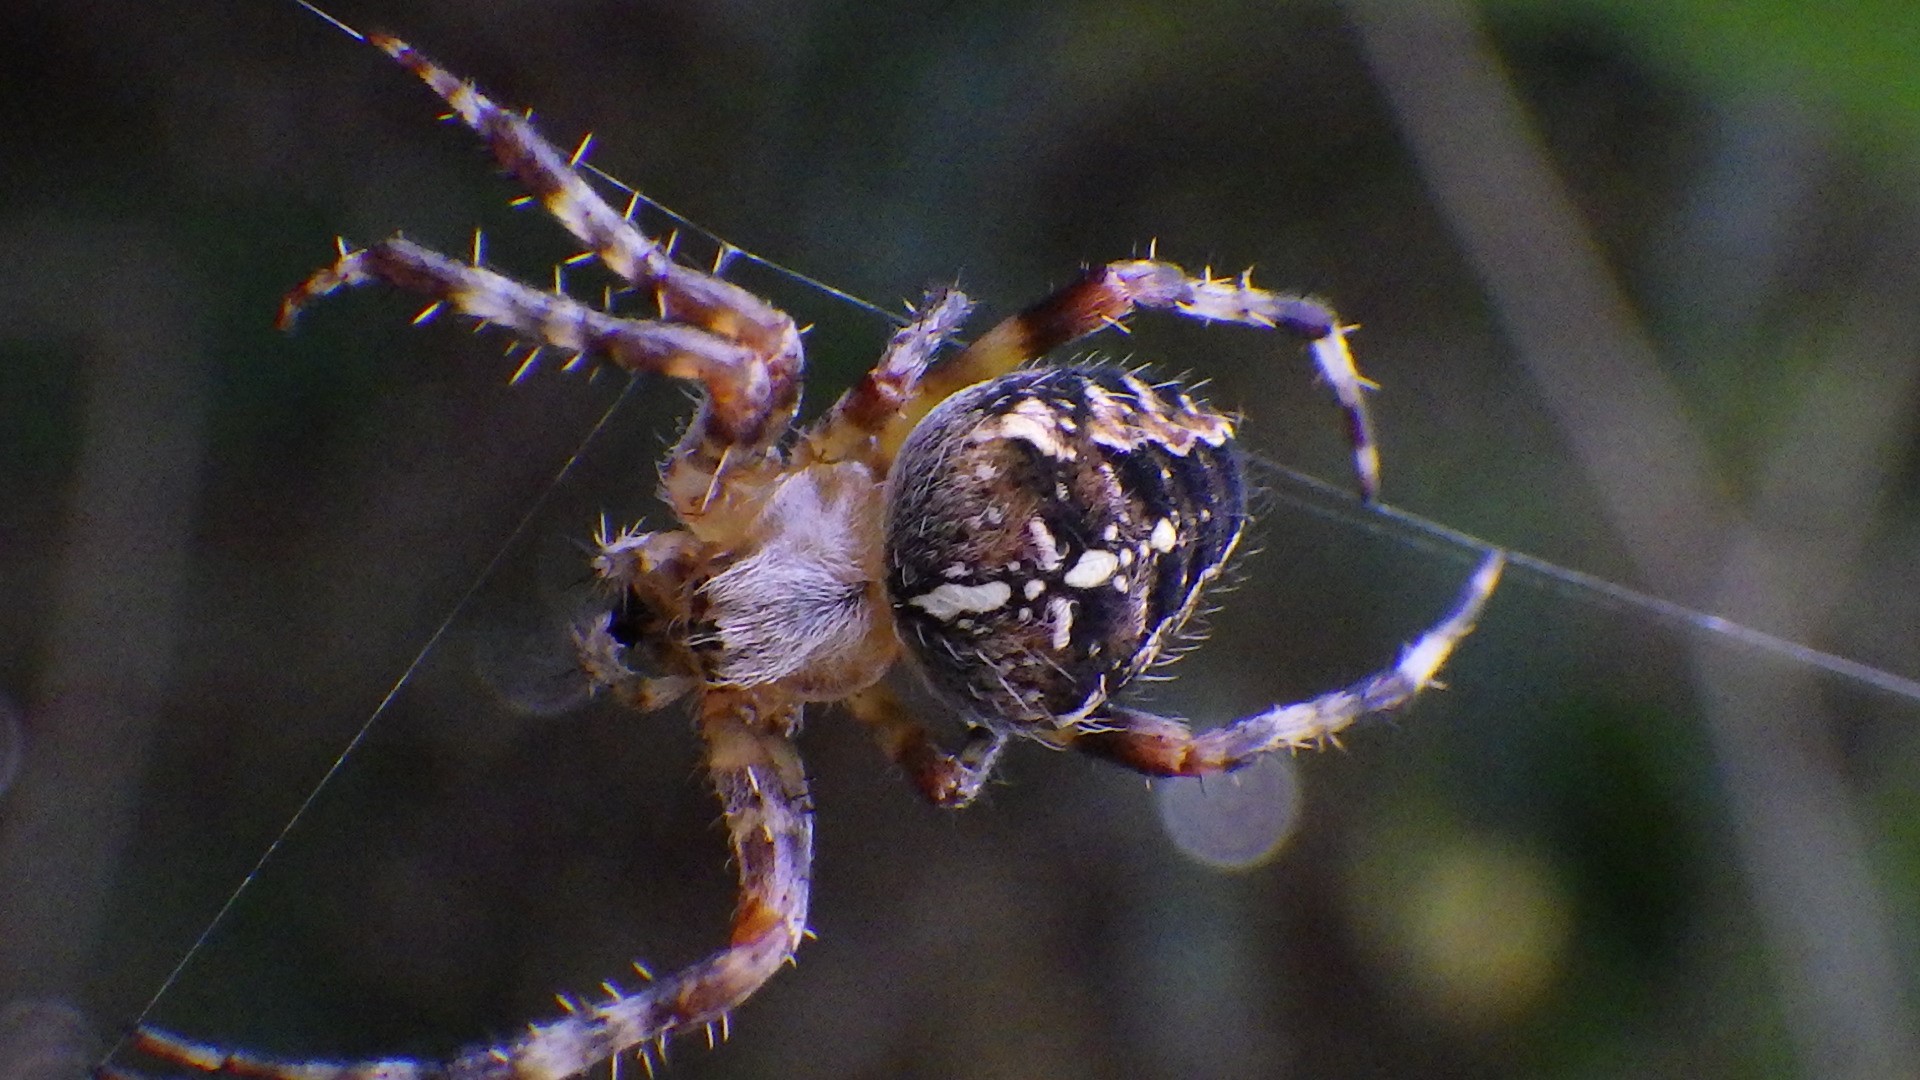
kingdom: Animalia
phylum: Arthropoda
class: Arachnida
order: Araneae
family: Araneidae
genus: Araneus
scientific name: Araneus diadematus
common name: Cross orbweaver
